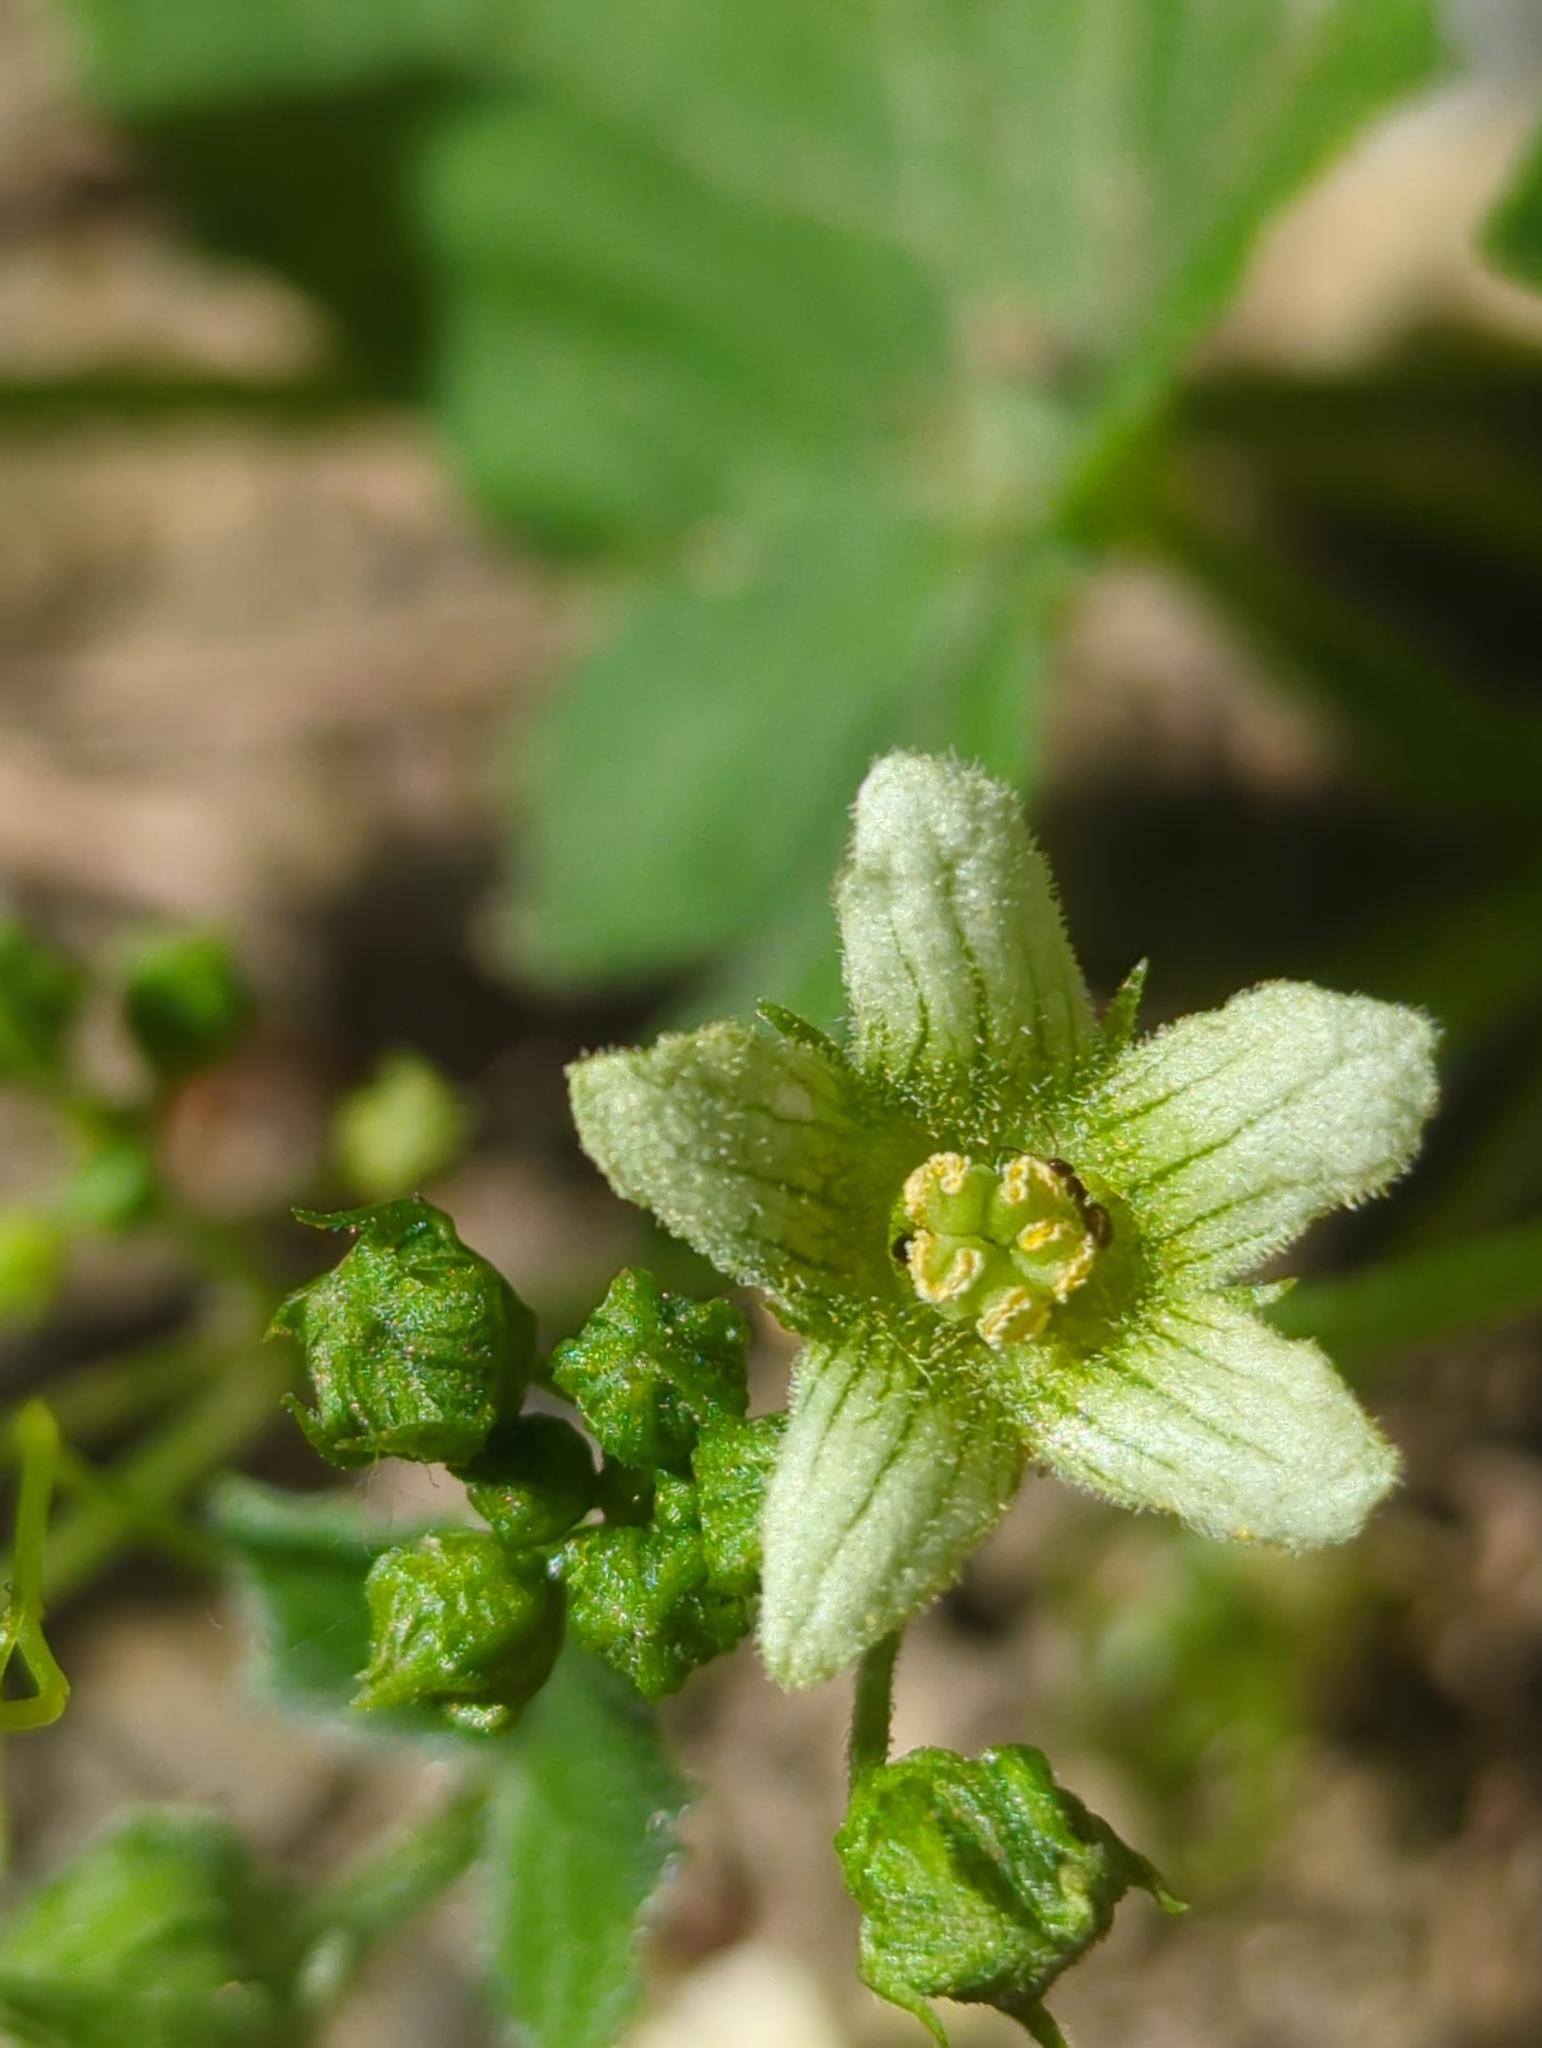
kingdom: Plantae
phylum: Tracheophyta
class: Magnoliopsida
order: Cucurbitales
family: Cucurbitaceae
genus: Bryonia
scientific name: Bryonia cretica
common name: Cretan bryony
